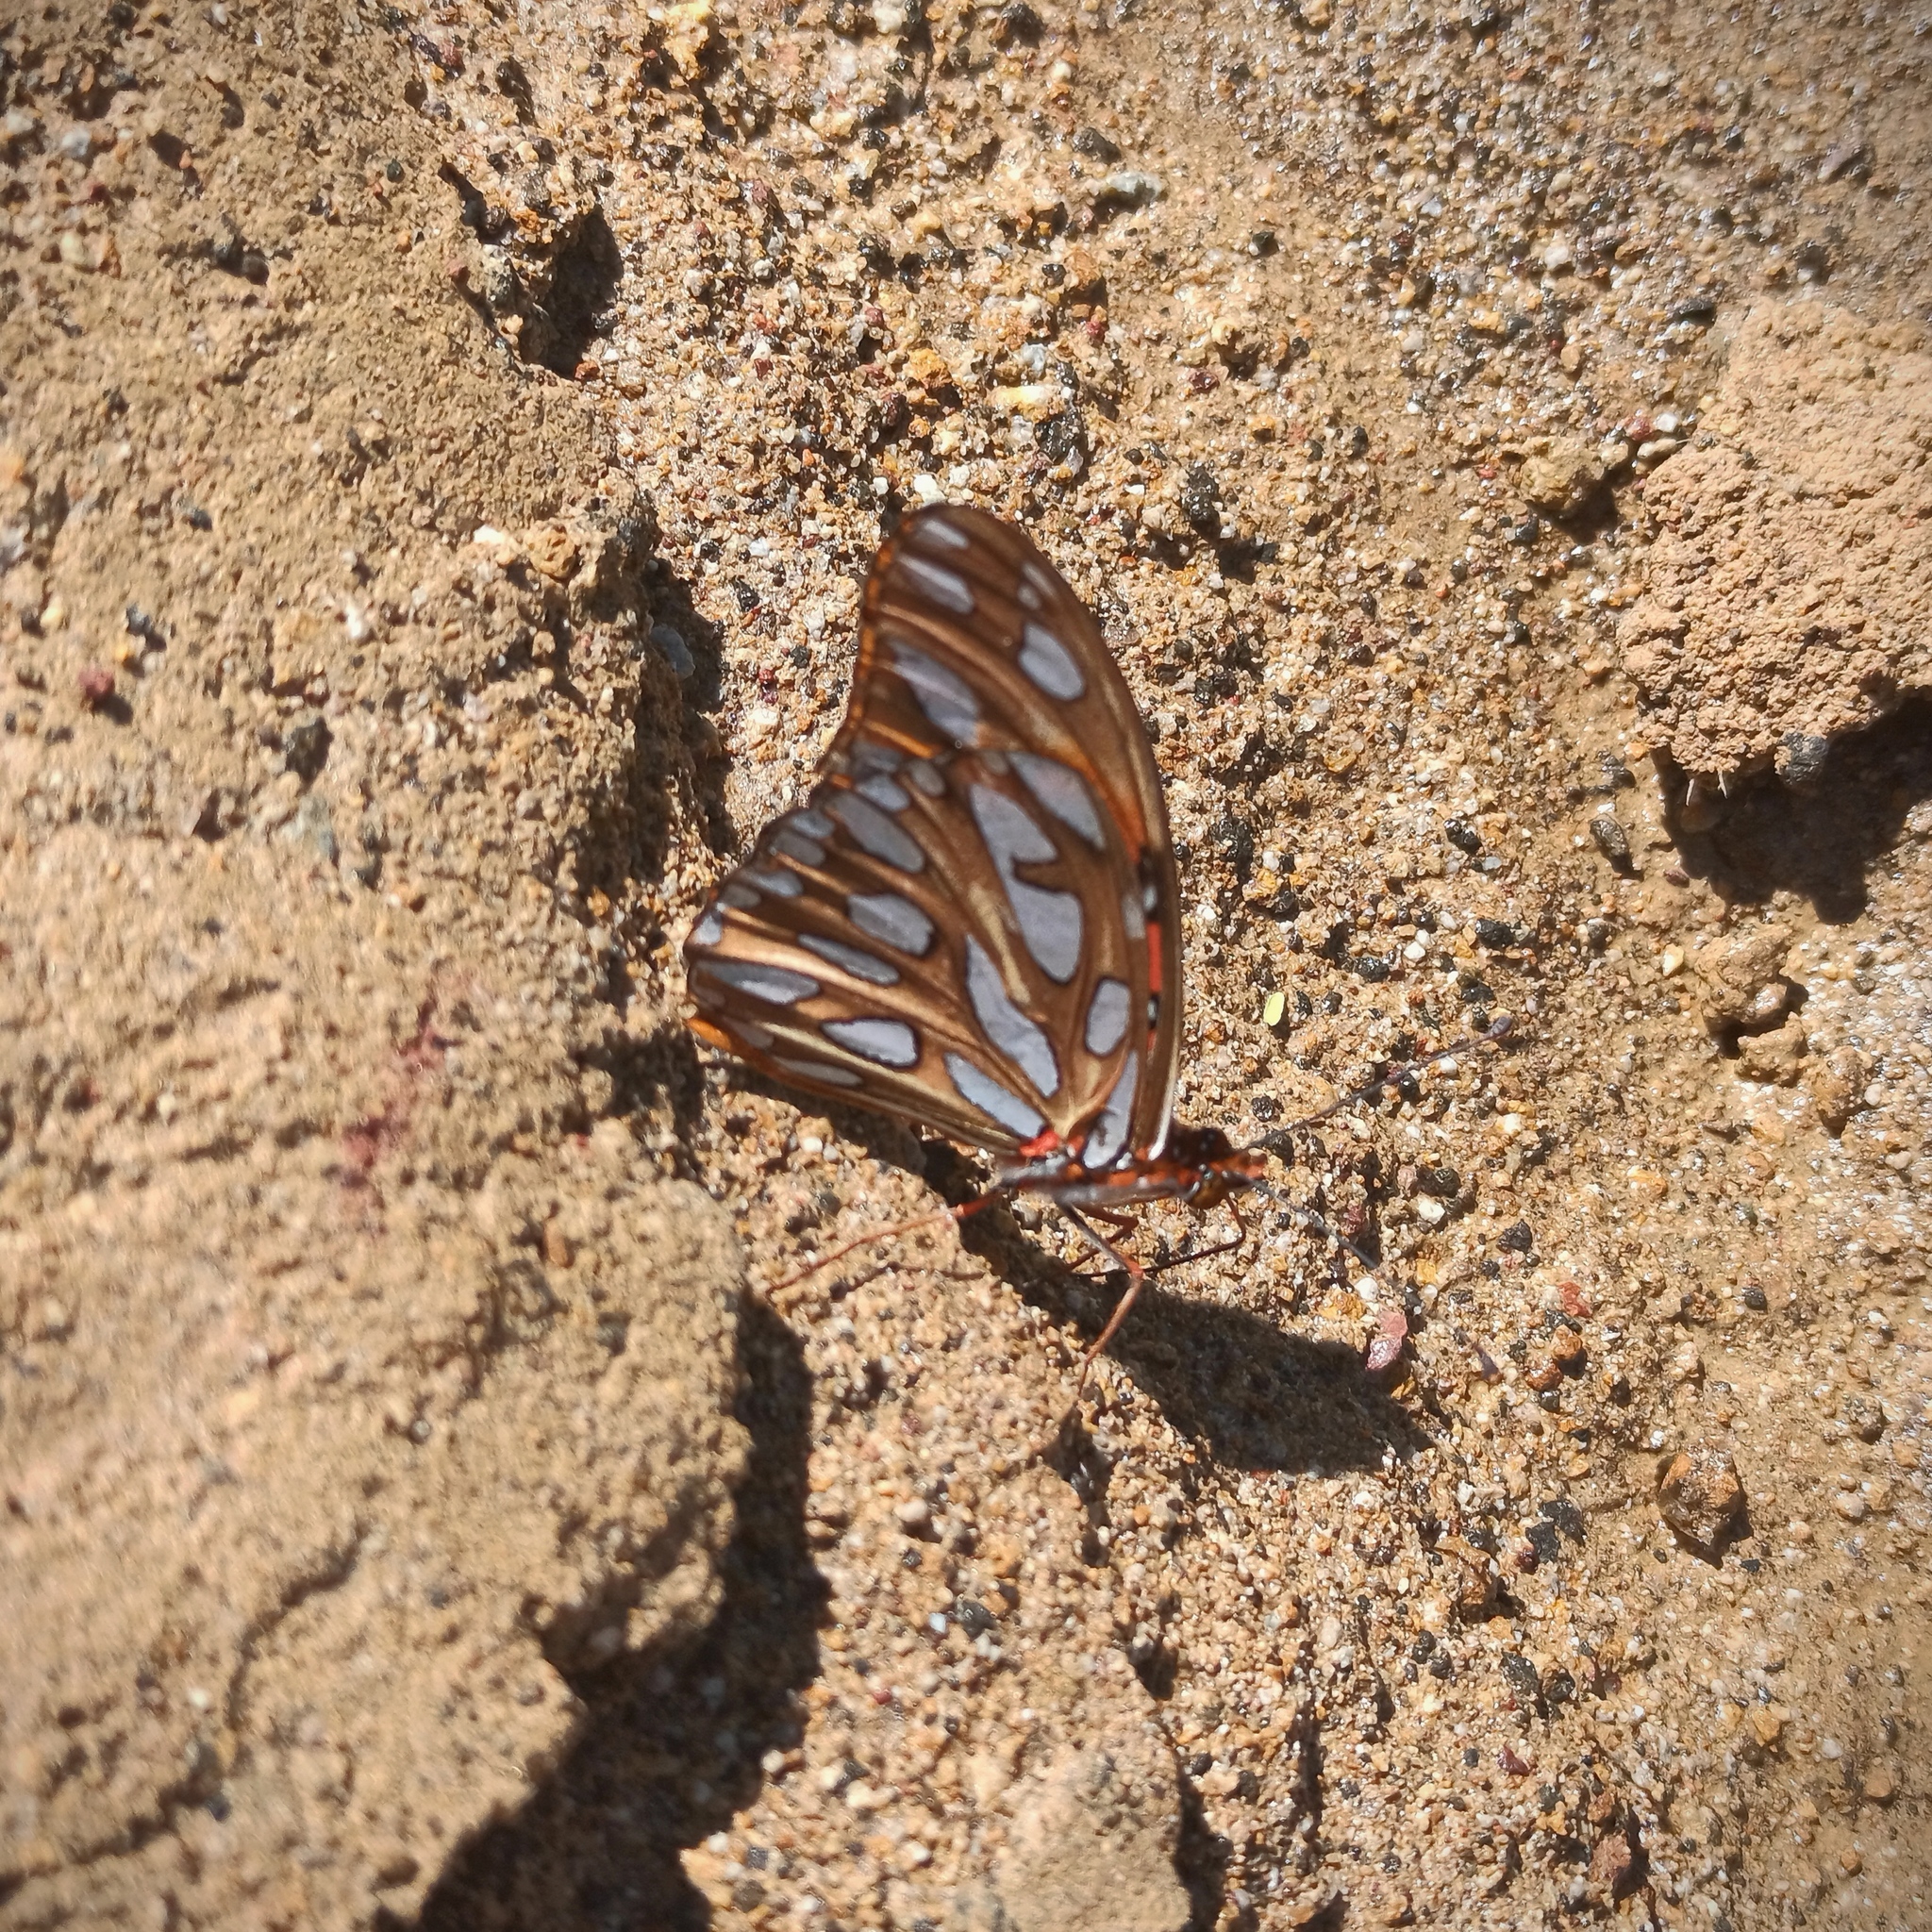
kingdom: Animalia
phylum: Arthropoda
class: Insecta
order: Lepidoptera
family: Nymphalidae
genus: Dione
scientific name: Dione vanillae
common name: Gulf fritillary
